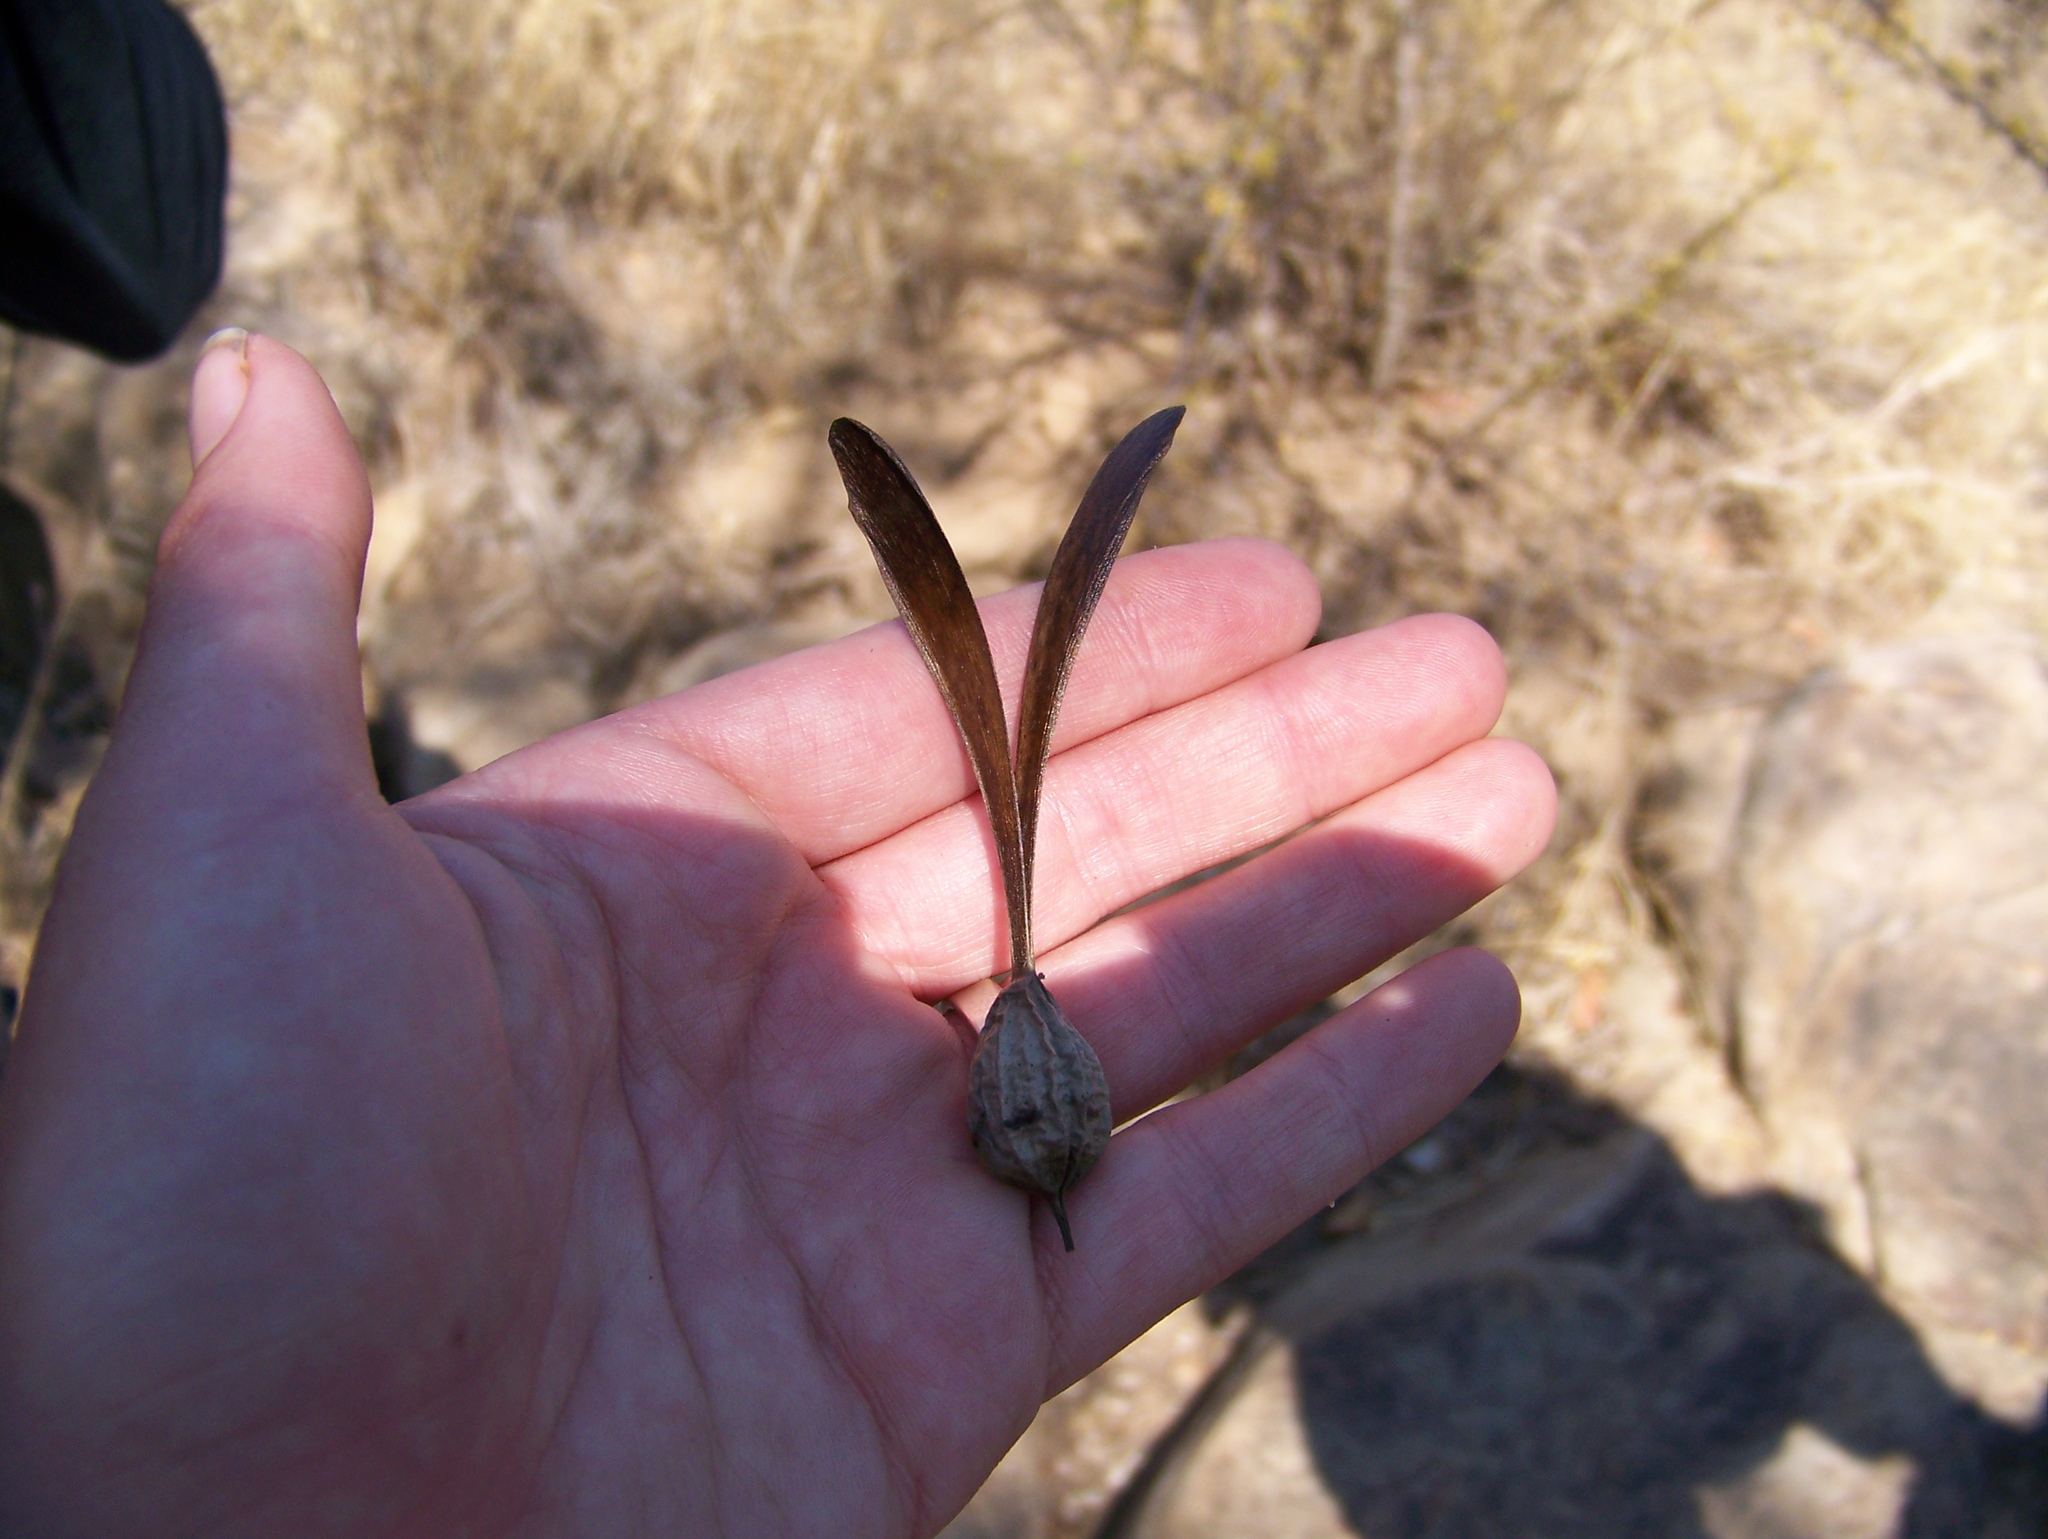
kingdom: Plantae
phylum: Tracheophyta
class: Magnoliopsida
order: Laurales
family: Hernandiaceae
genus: Gyrocarpus
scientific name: Gyrocarpus americanus
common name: Gyro damson
